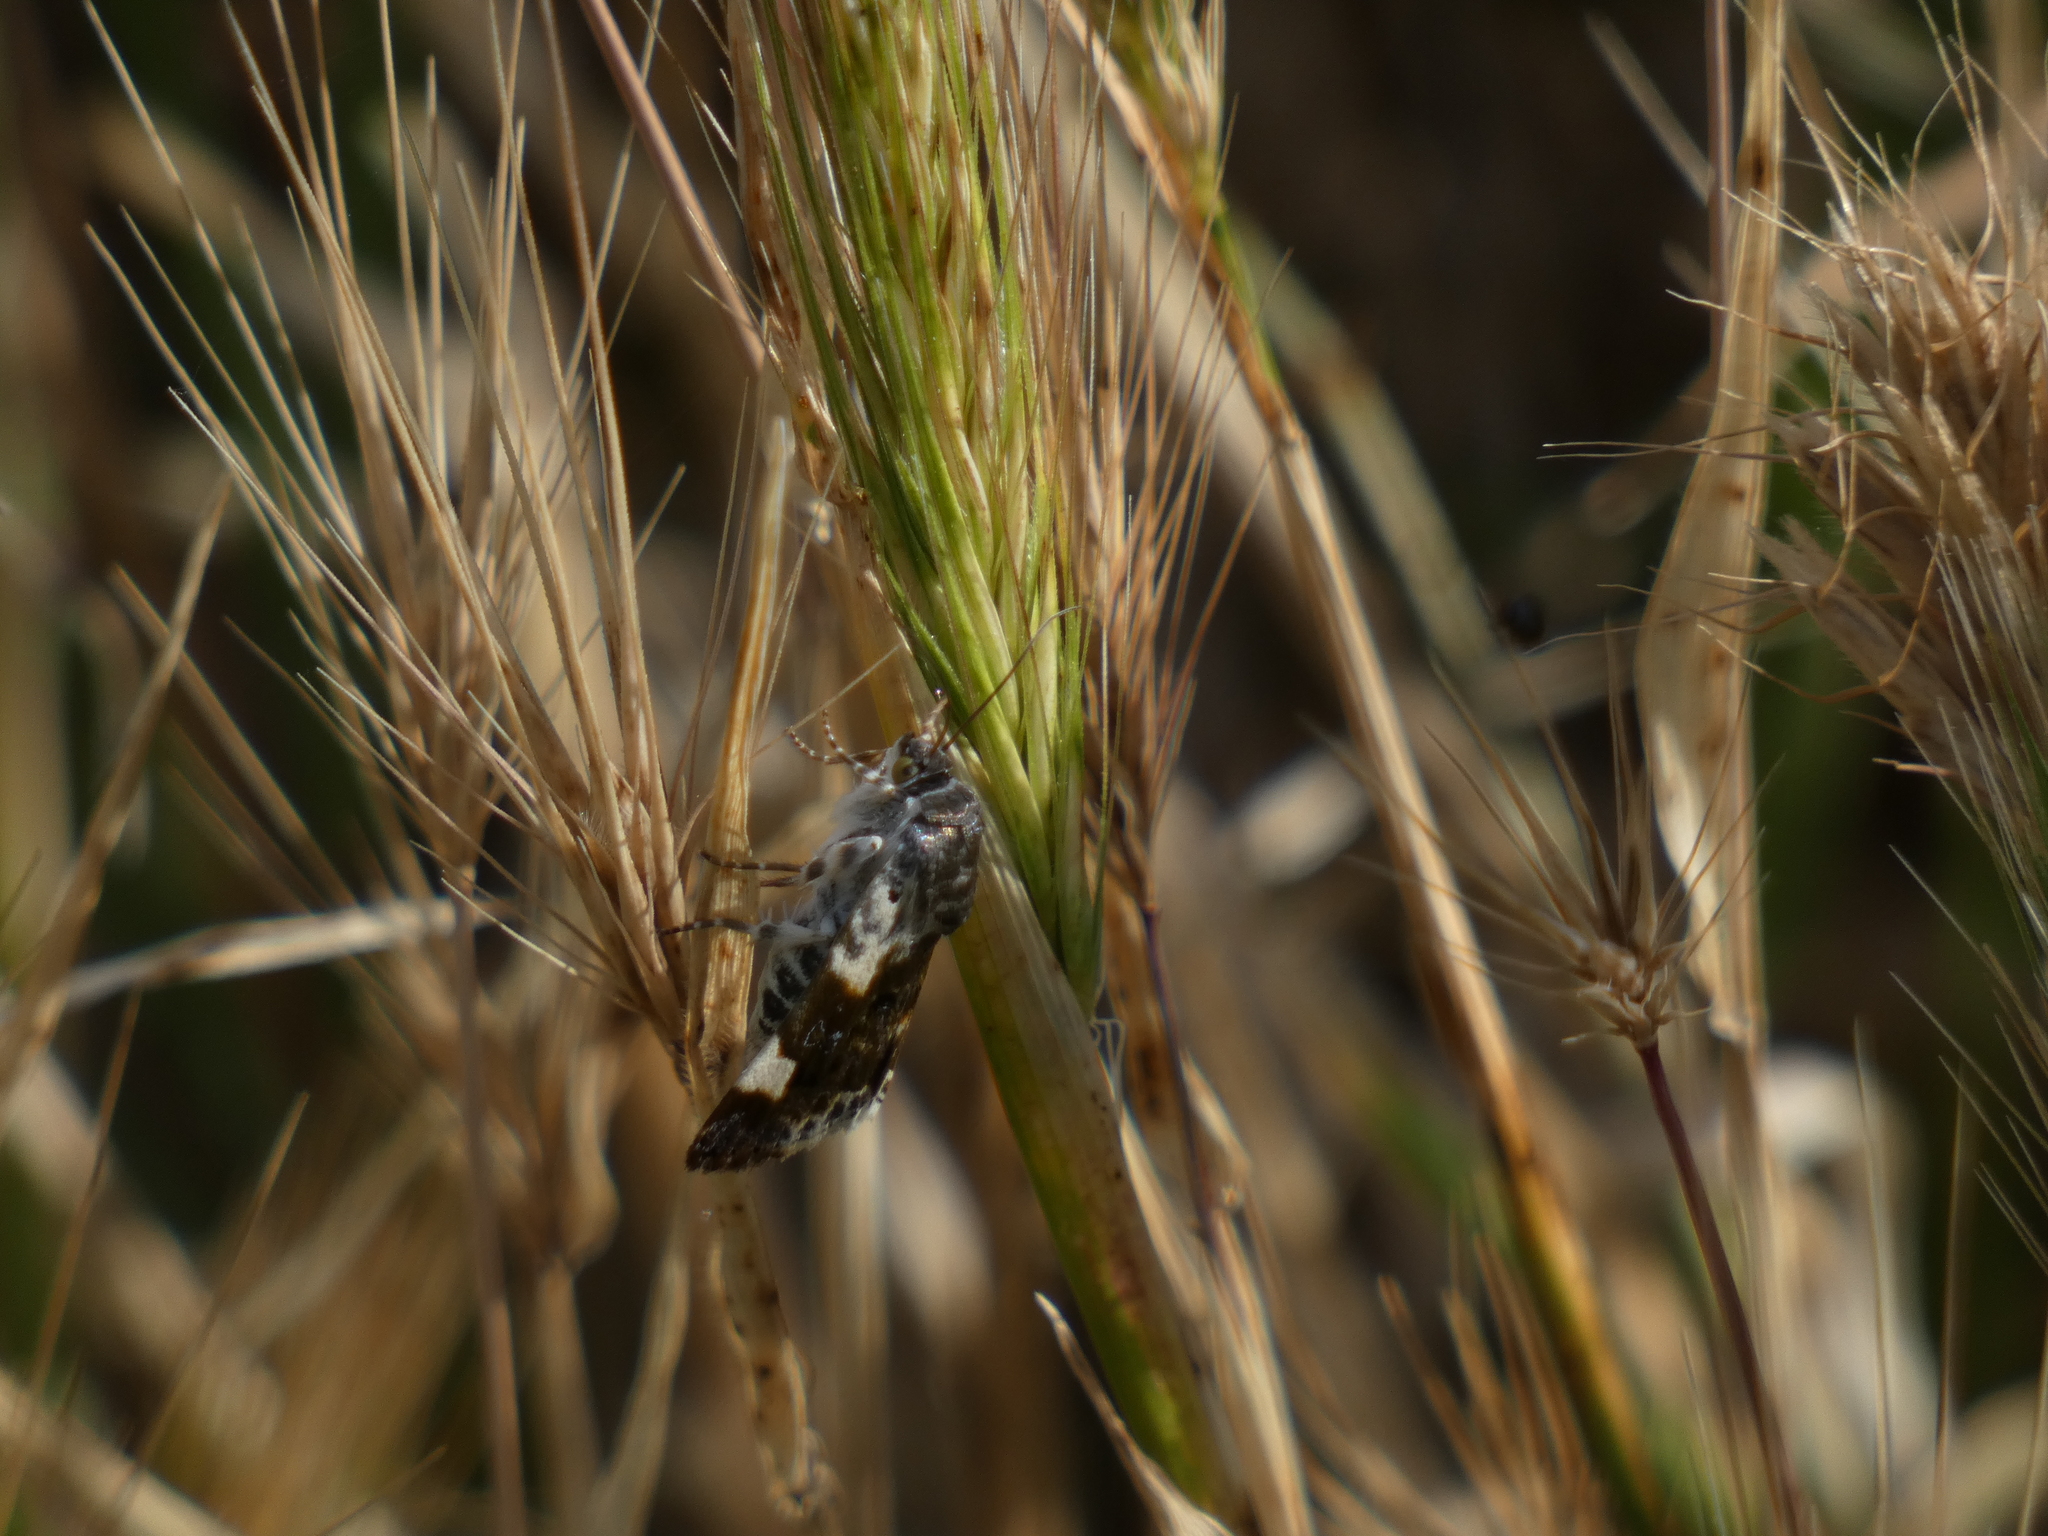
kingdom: Animalia
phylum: Arthropoda
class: Insecta
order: Lepidoptera
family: Noctuidae
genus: Acontia
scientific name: Acontia lucida
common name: Pale shoulder
